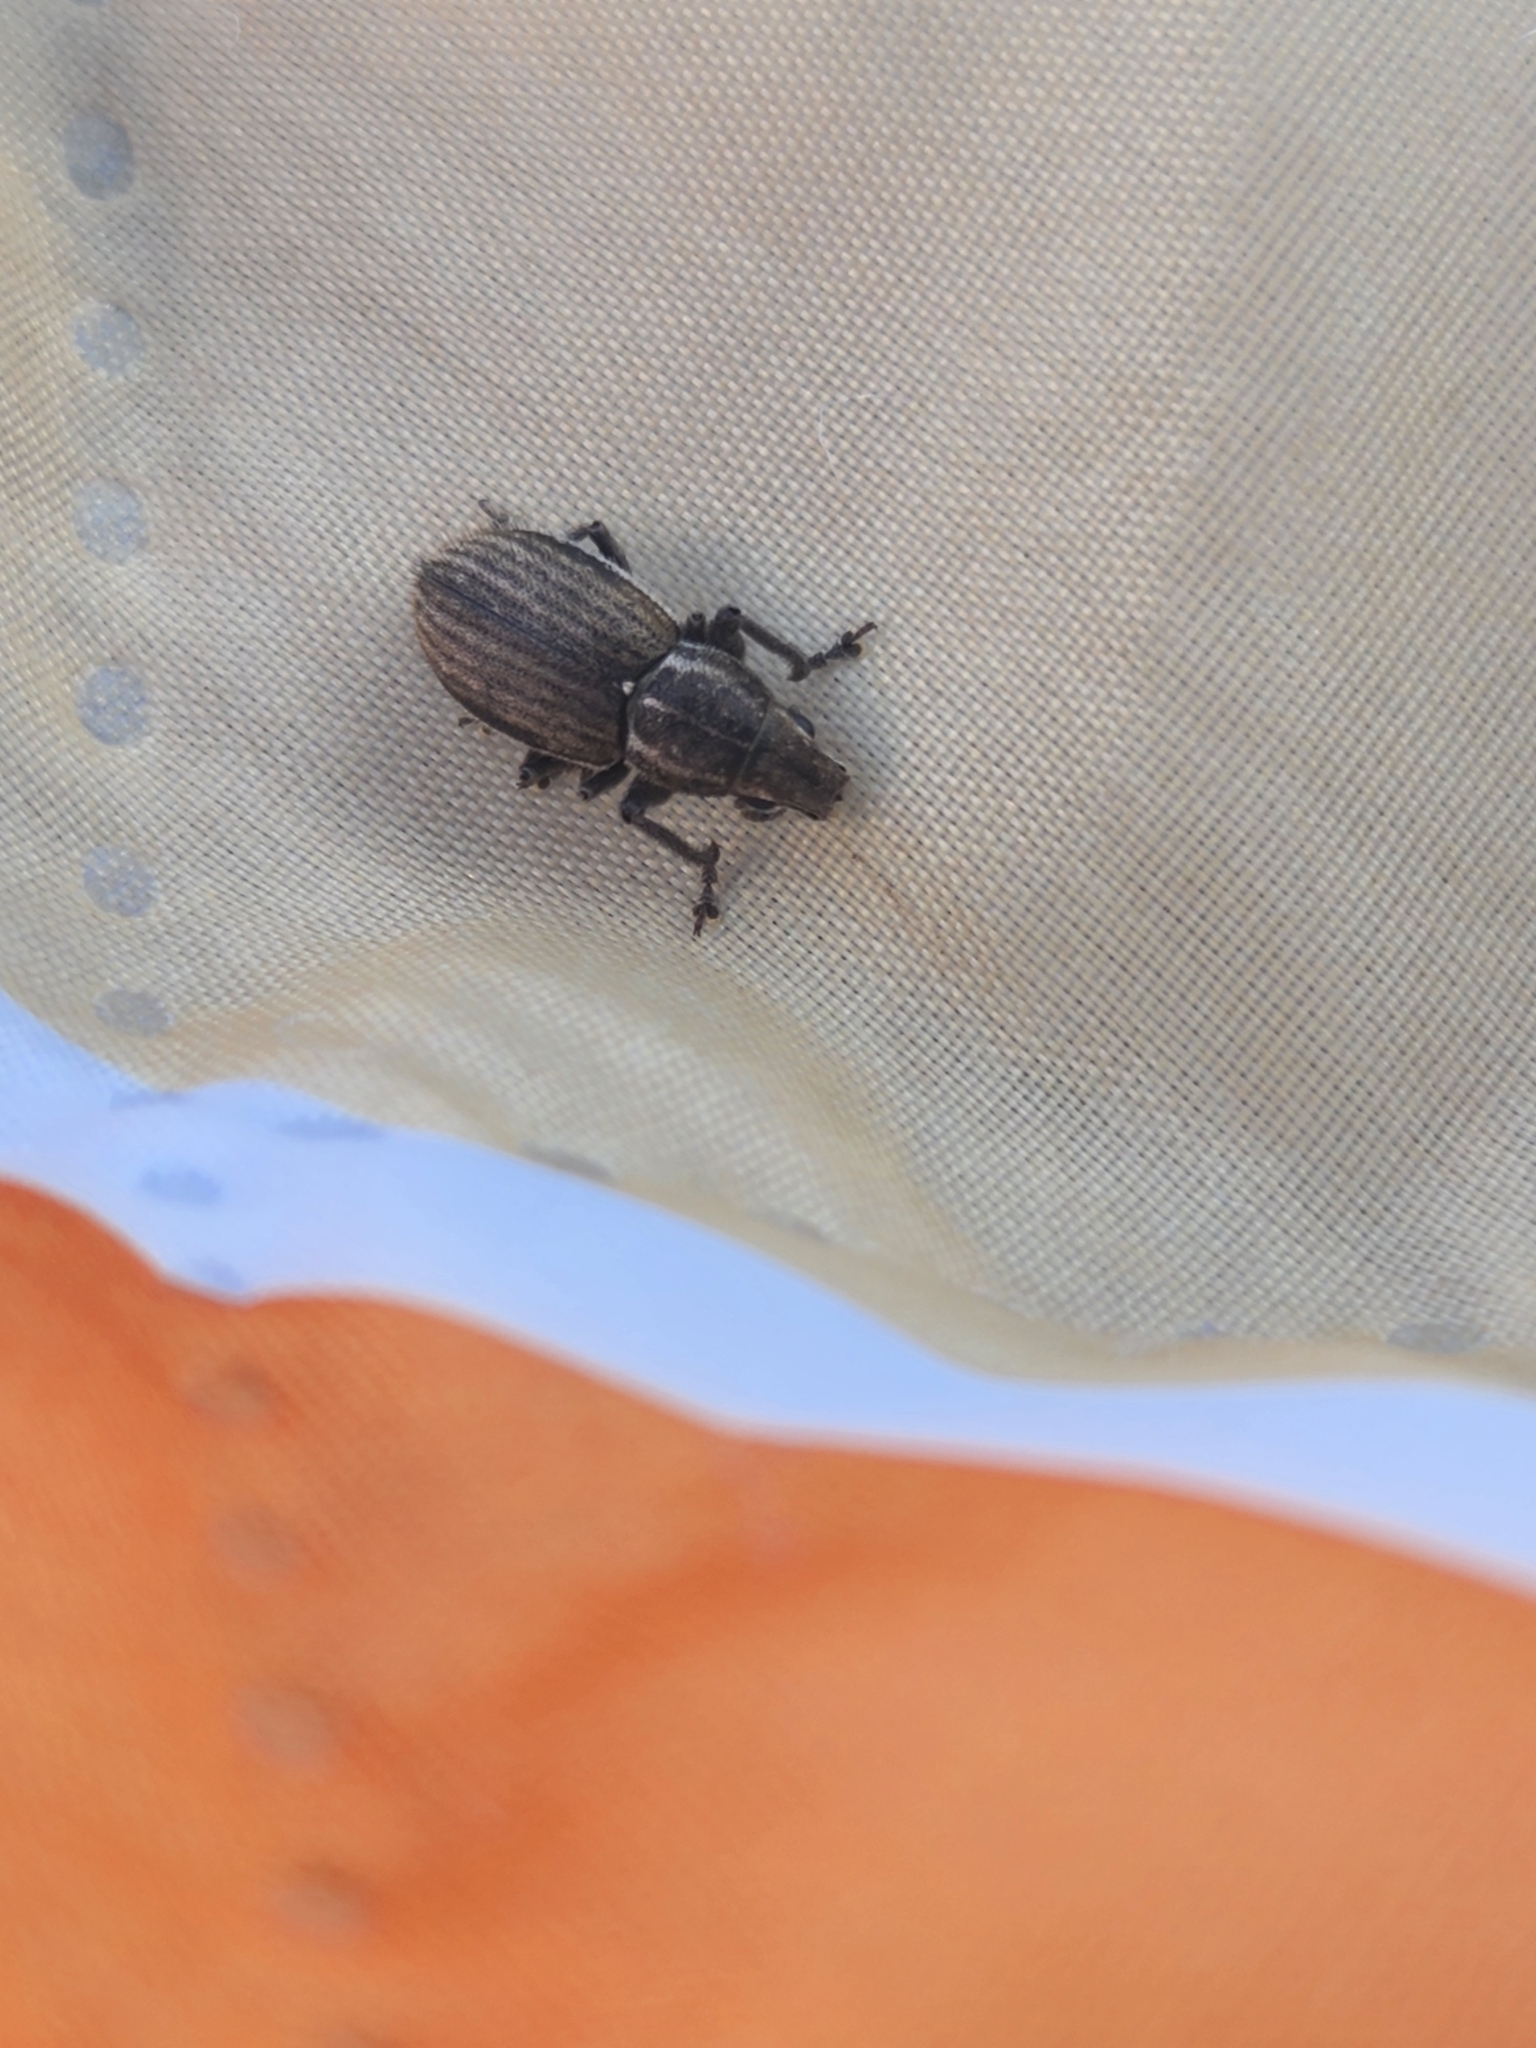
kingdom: Animalia
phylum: Arthropoda
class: Insecta
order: Coleoptera
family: Curculionidae
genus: Naupactus
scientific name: Naupactus leucoloma
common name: Whitefringed beetle
